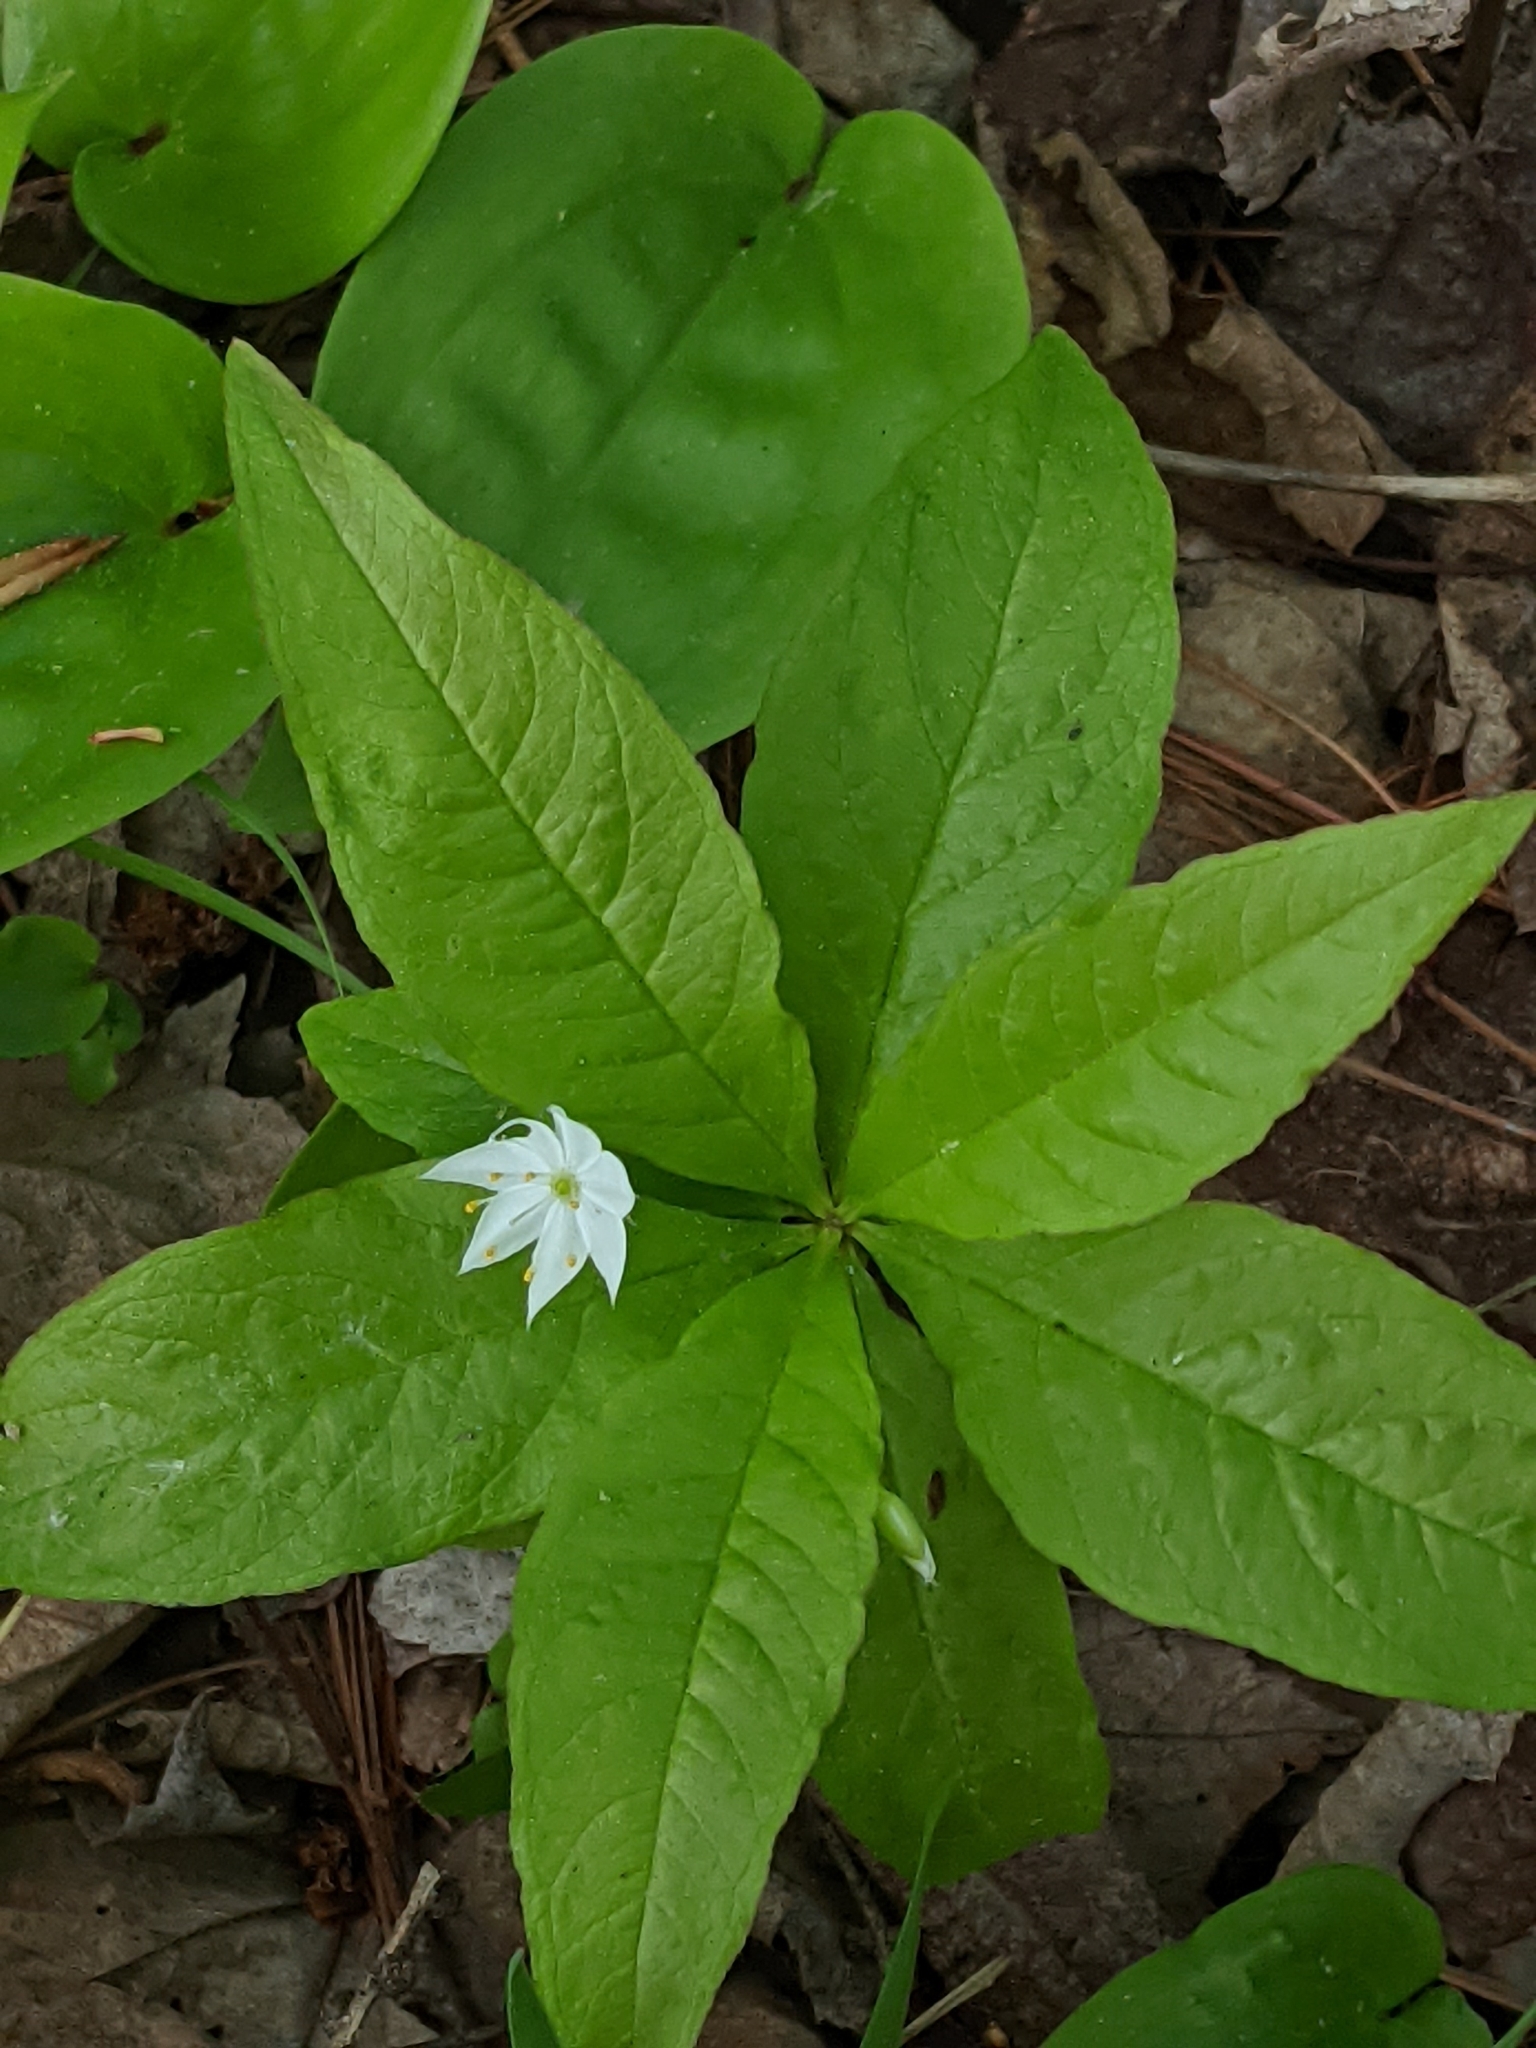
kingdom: Plantae
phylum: Tracheophyta
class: Magnoliopsida
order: Ericales
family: Primulaceae
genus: Lysimachia
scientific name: Lysimachia borealis
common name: American starflower
